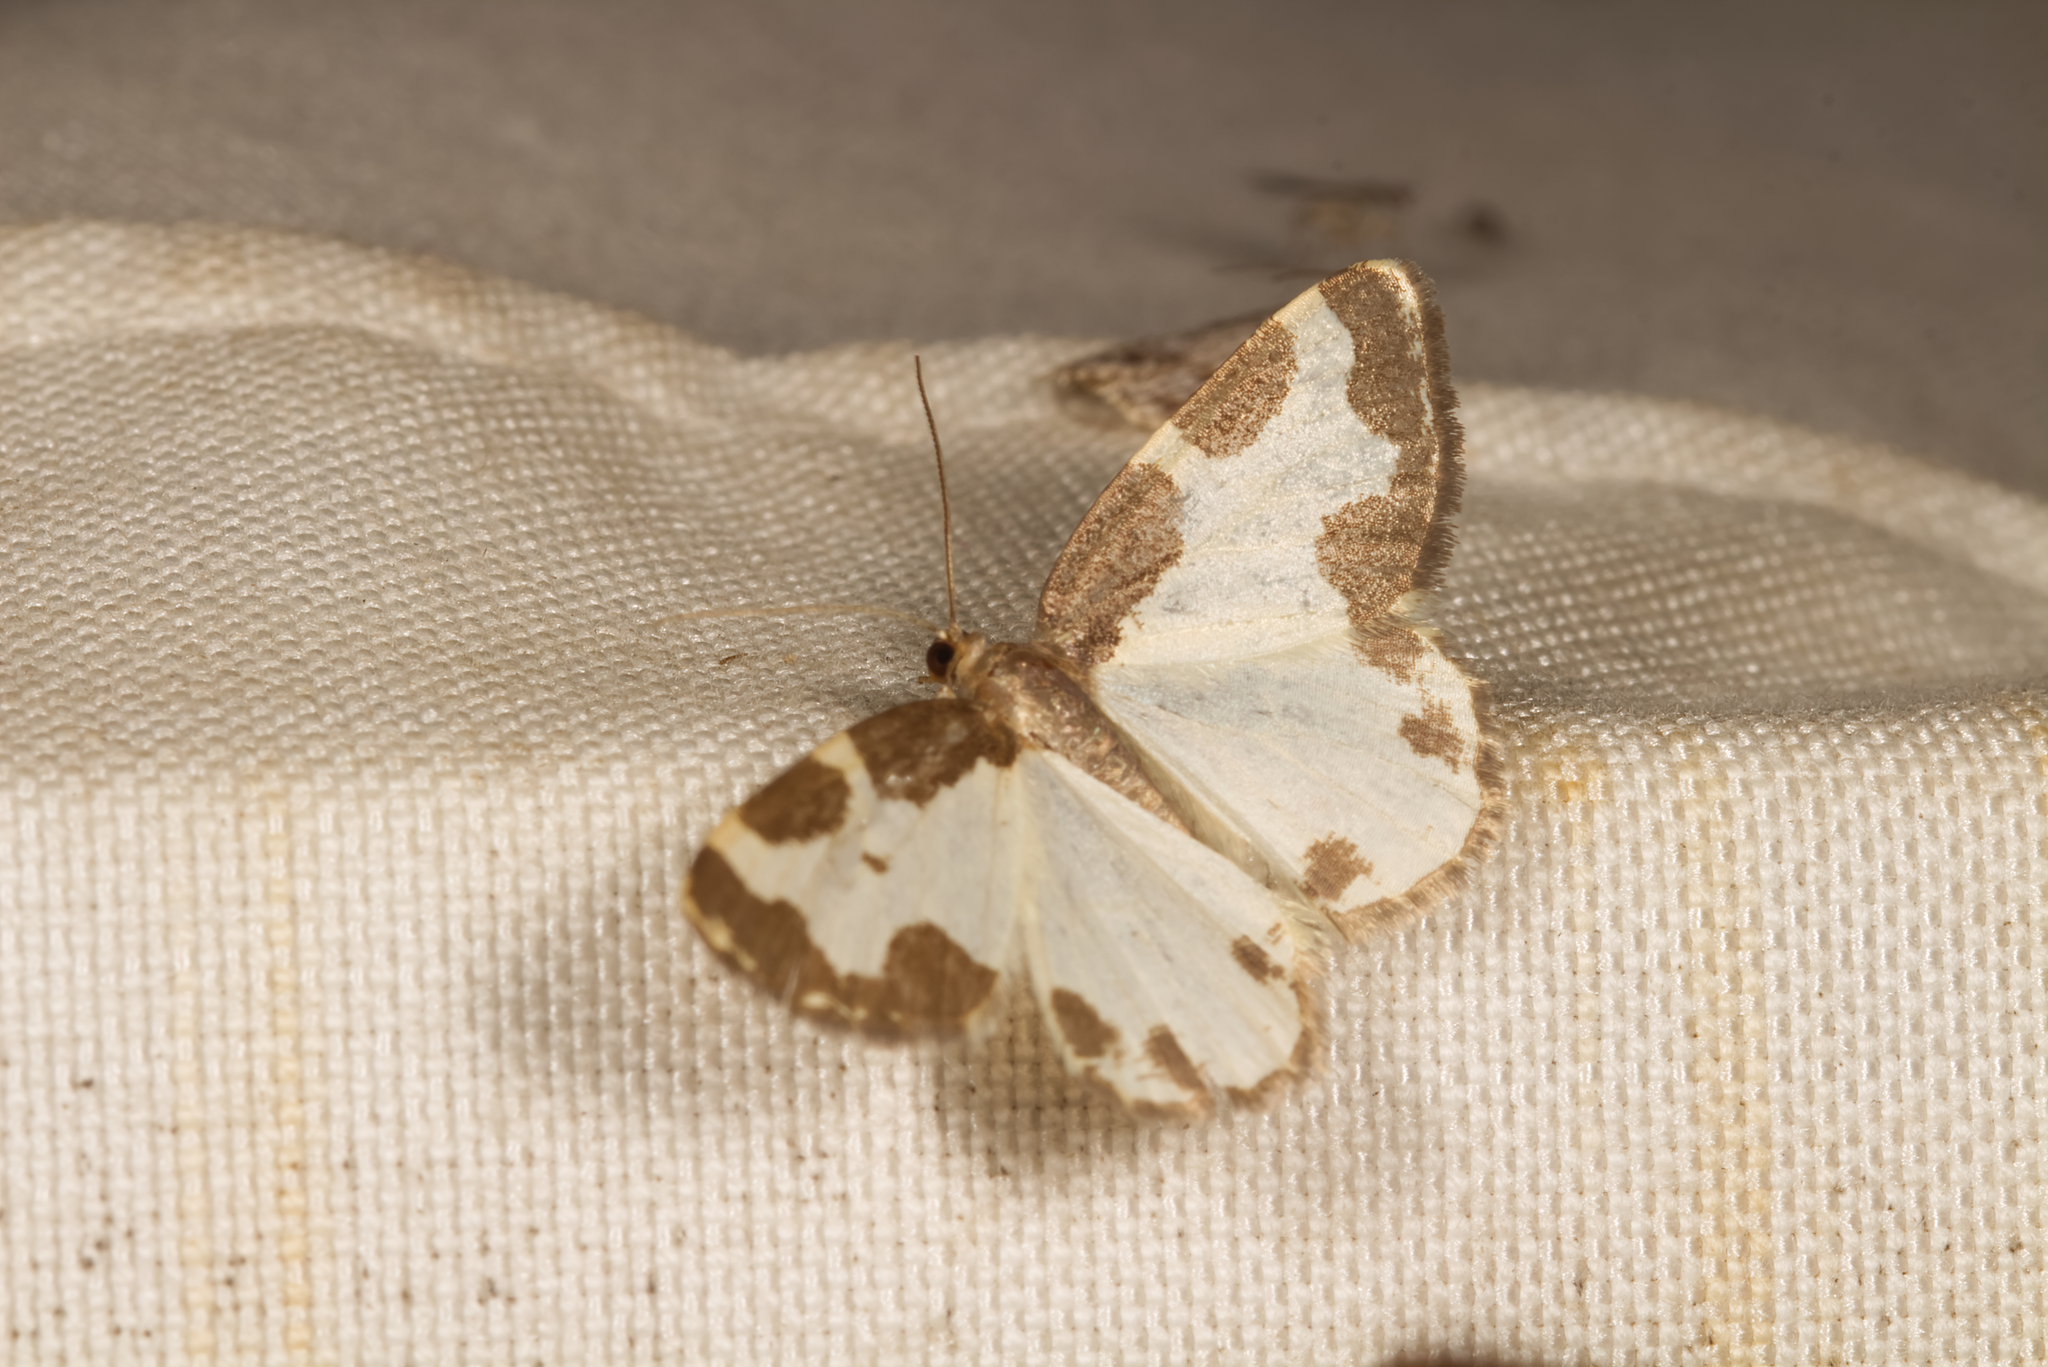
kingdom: Animalia
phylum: Arthropoda
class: Insecta
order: Lepidoptera
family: Geometridae
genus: Lomaspilis
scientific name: Lomaspilis marginata
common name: Clouded border
